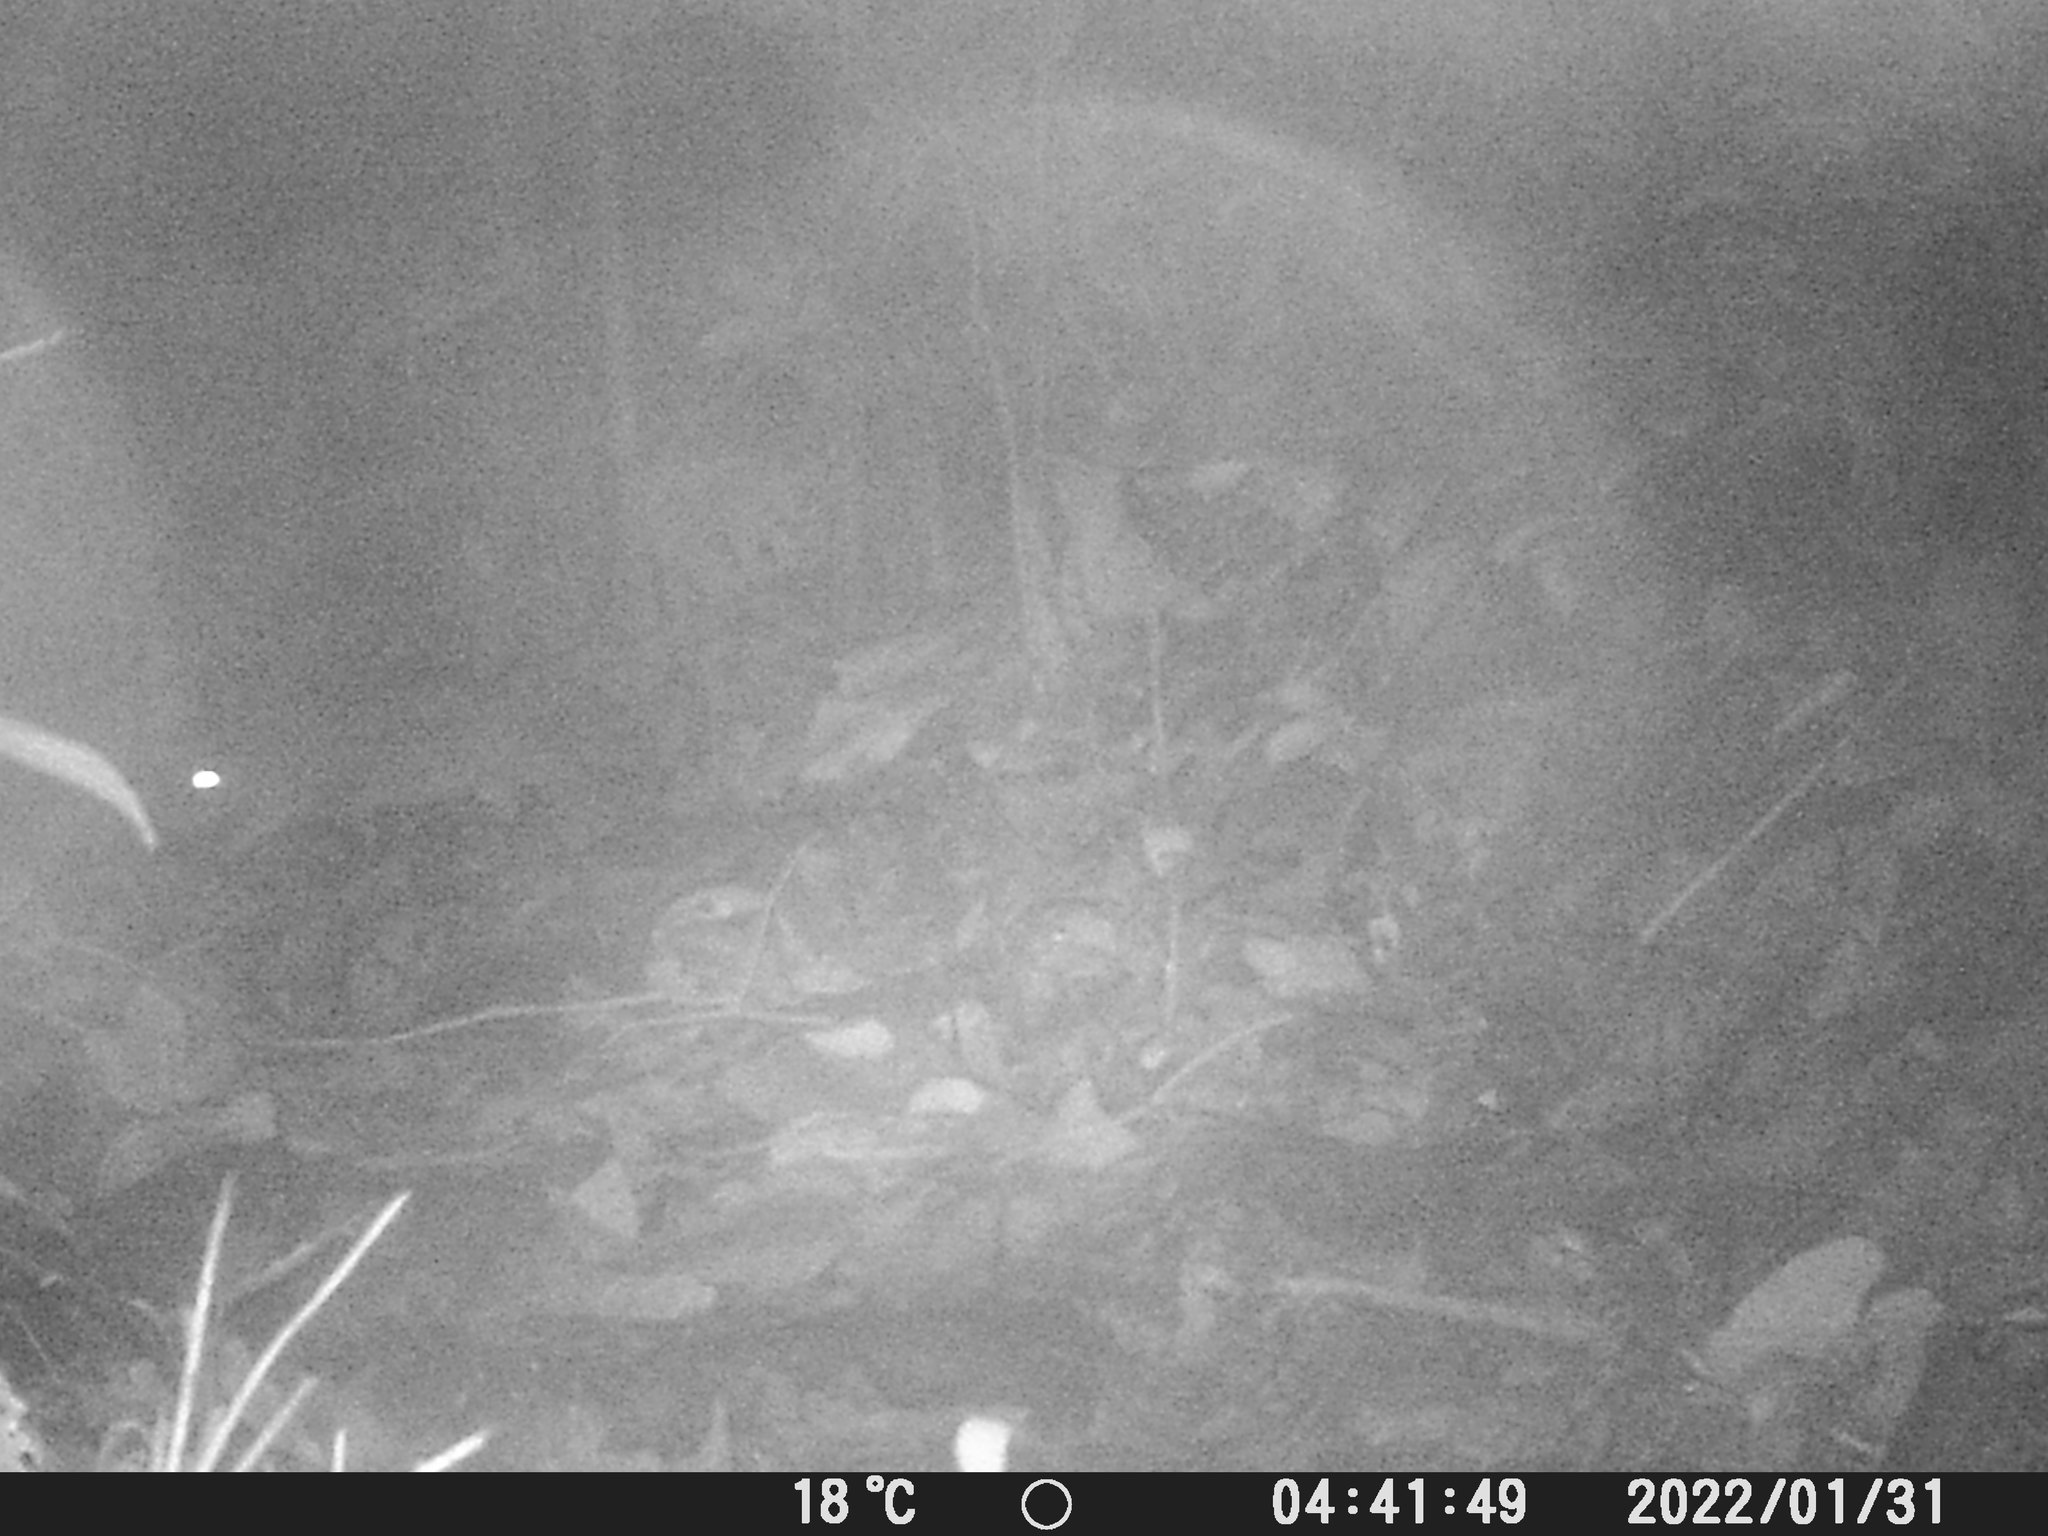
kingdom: Animalia
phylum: Chordata
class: Mammalia
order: Rodentia
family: Cuniculidae
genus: Cuniculus
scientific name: Cuniculus paca
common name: Lowland paca
